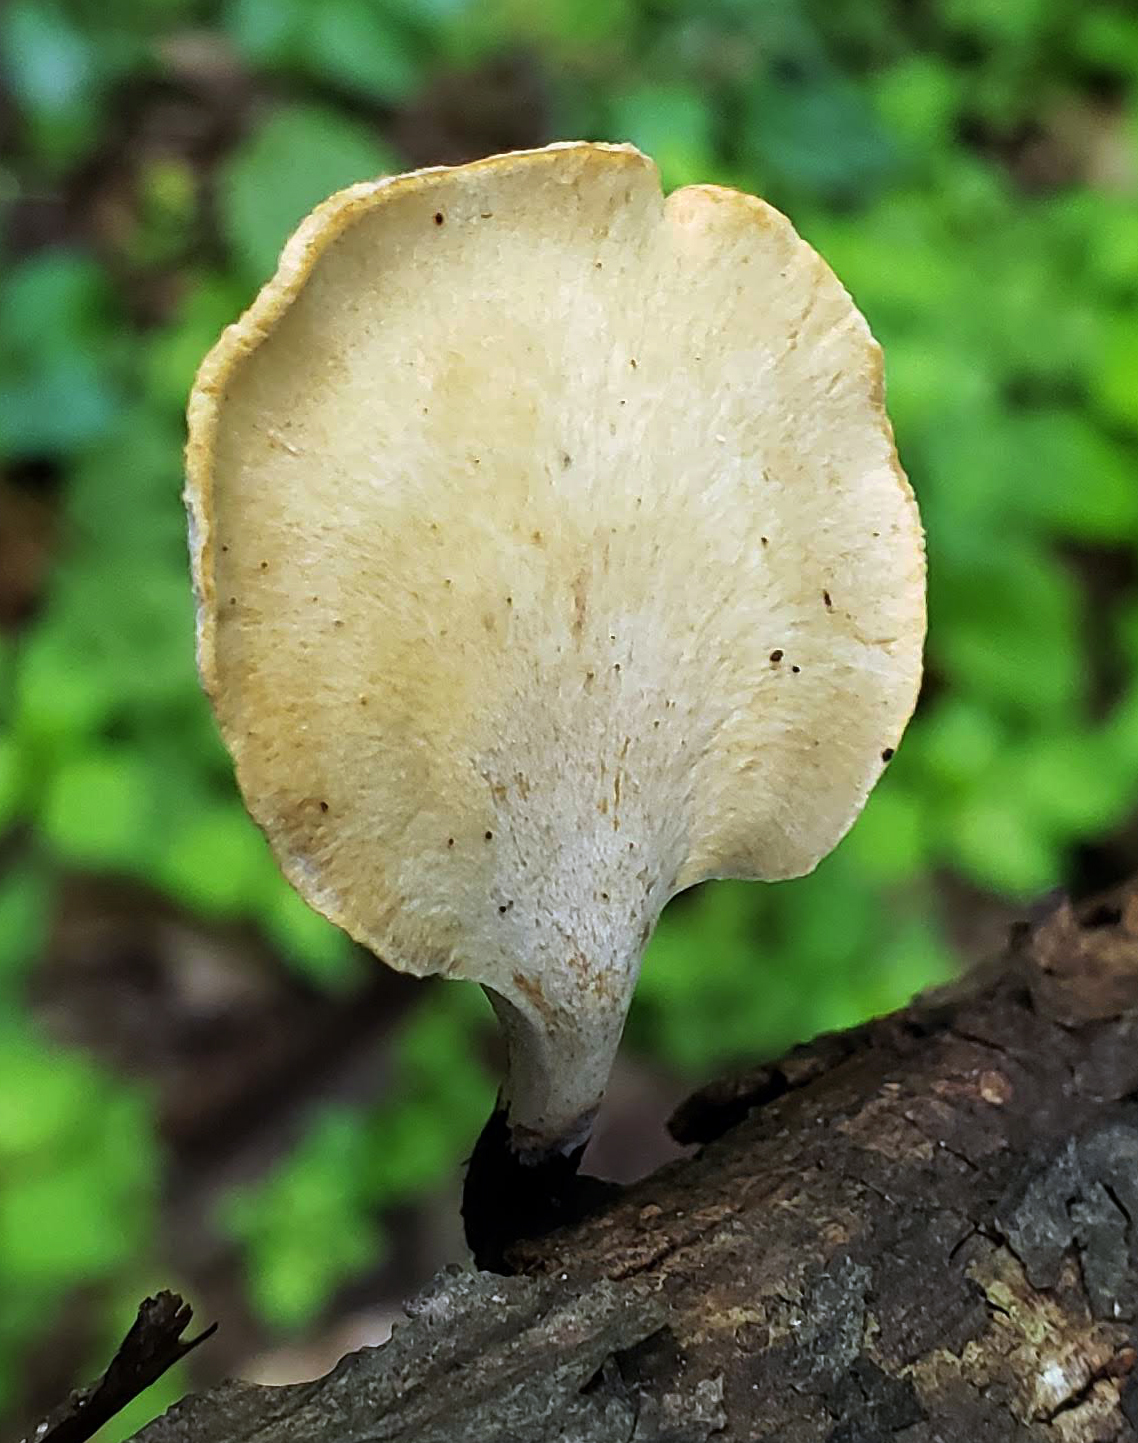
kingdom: Fungi
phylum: Basidiomycota
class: Agaricomycetes
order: Polyporales
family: Polyporaceae
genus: Cerioporus
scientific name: Cerioporus leptocephalus
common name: Blackfoot polypore
